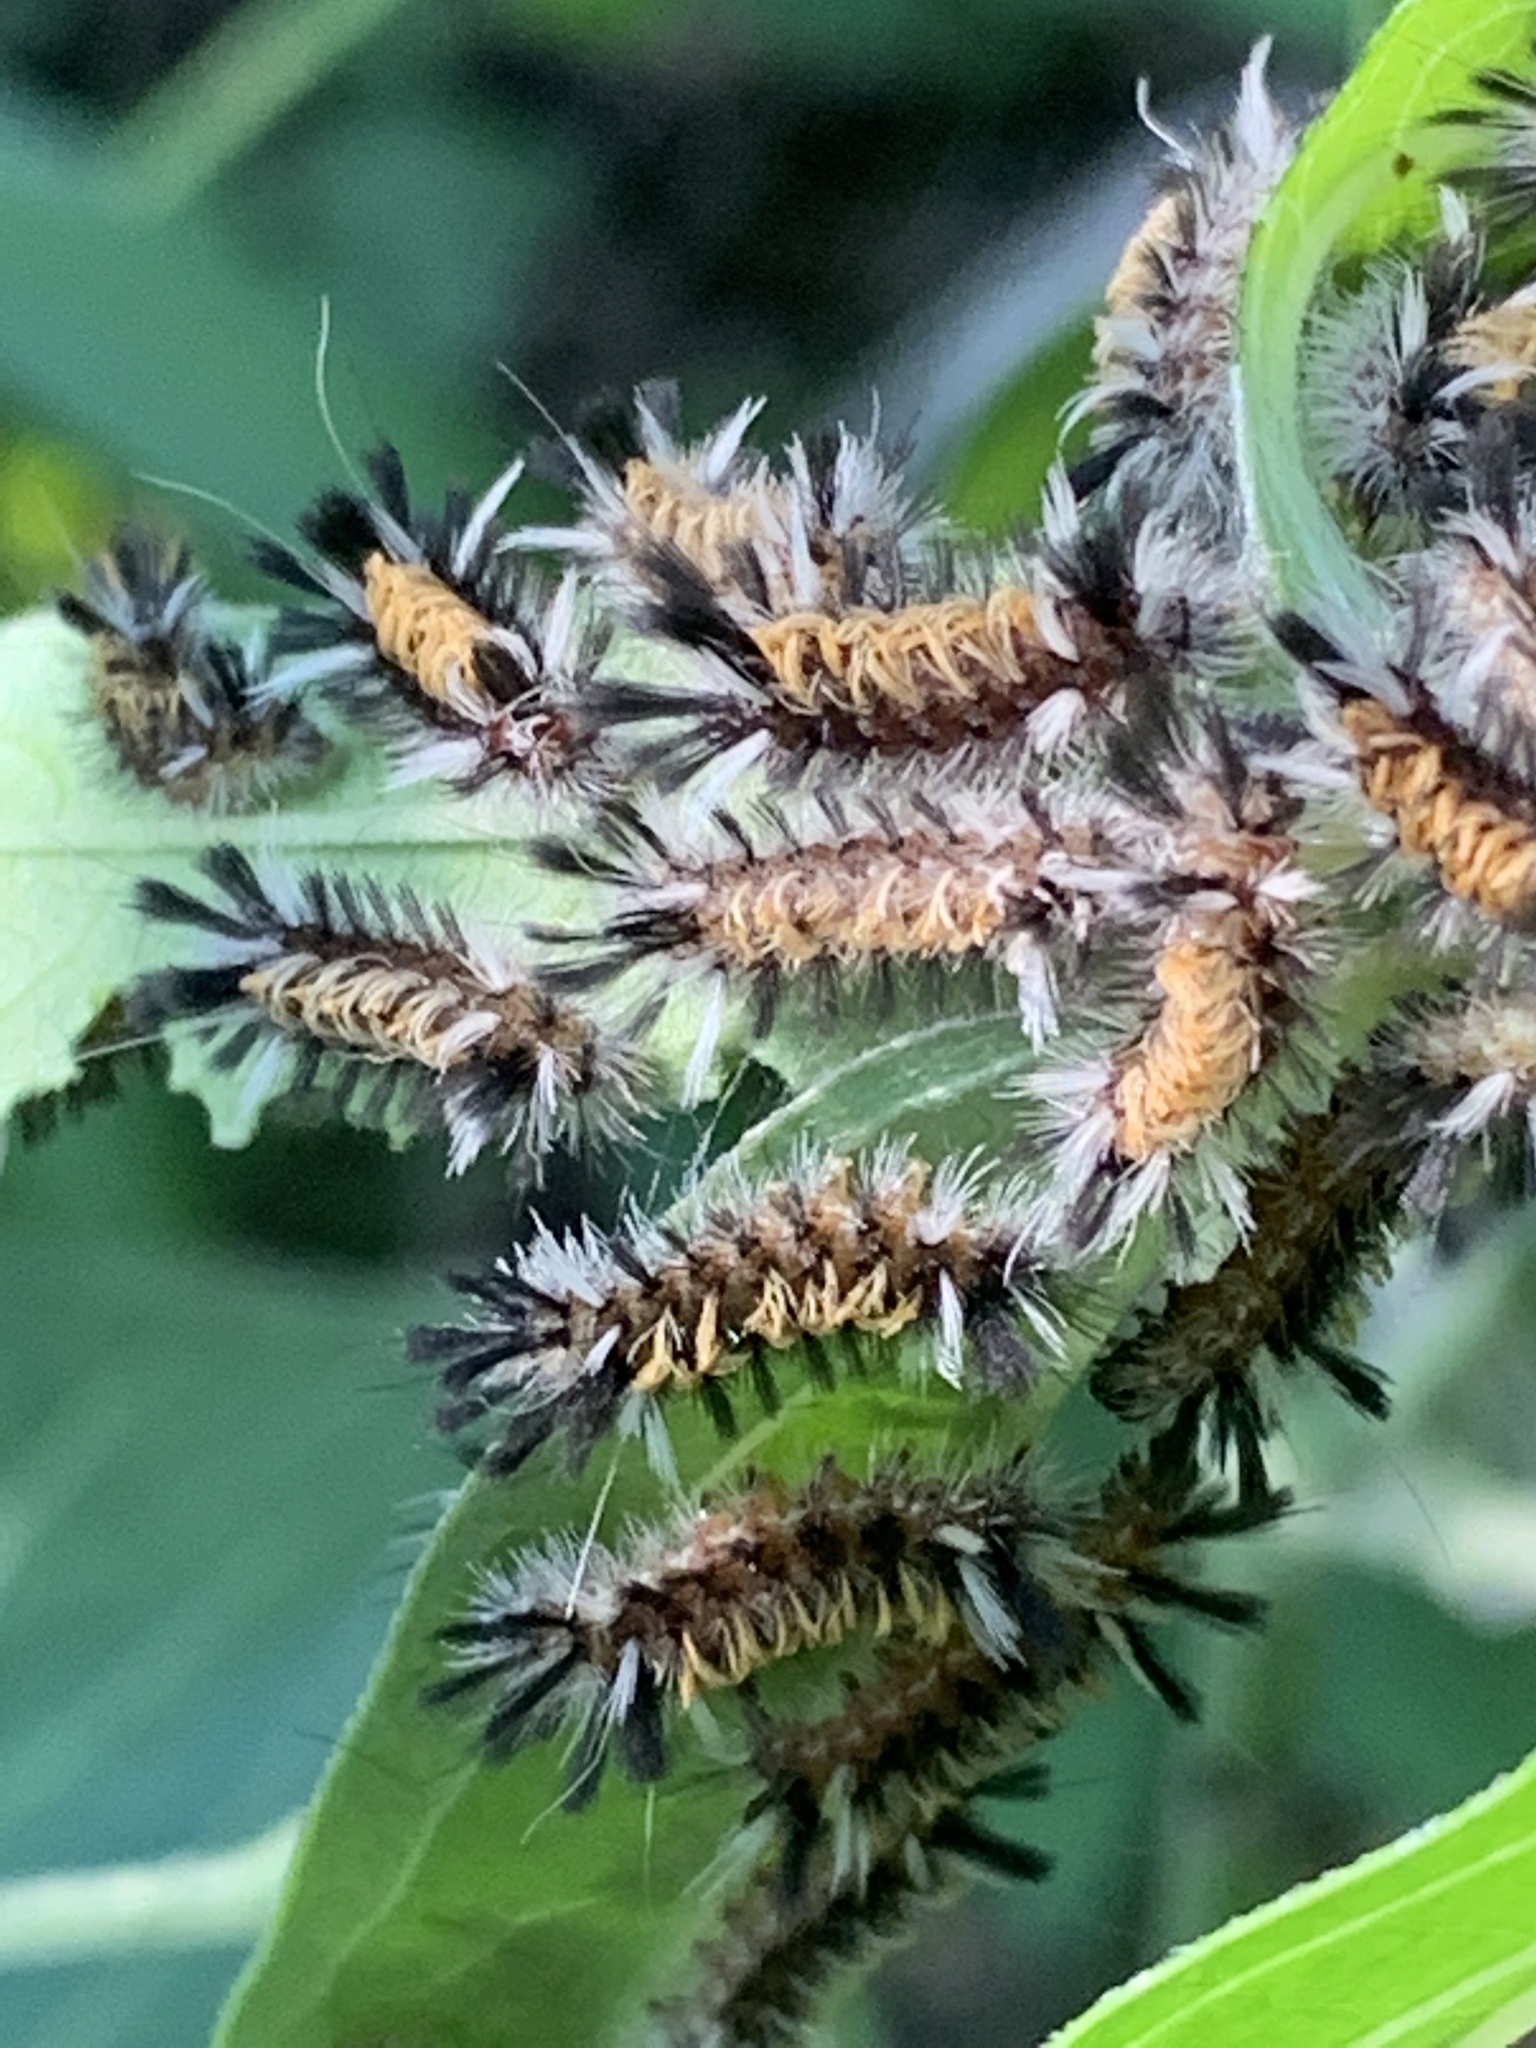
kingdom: Animalia
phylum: Arthropoda
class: Insecta
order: Lepidoptera
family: Erebidae
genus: Euchaetes
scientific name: Euchaetes egle
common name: Milkweed tussock moth
